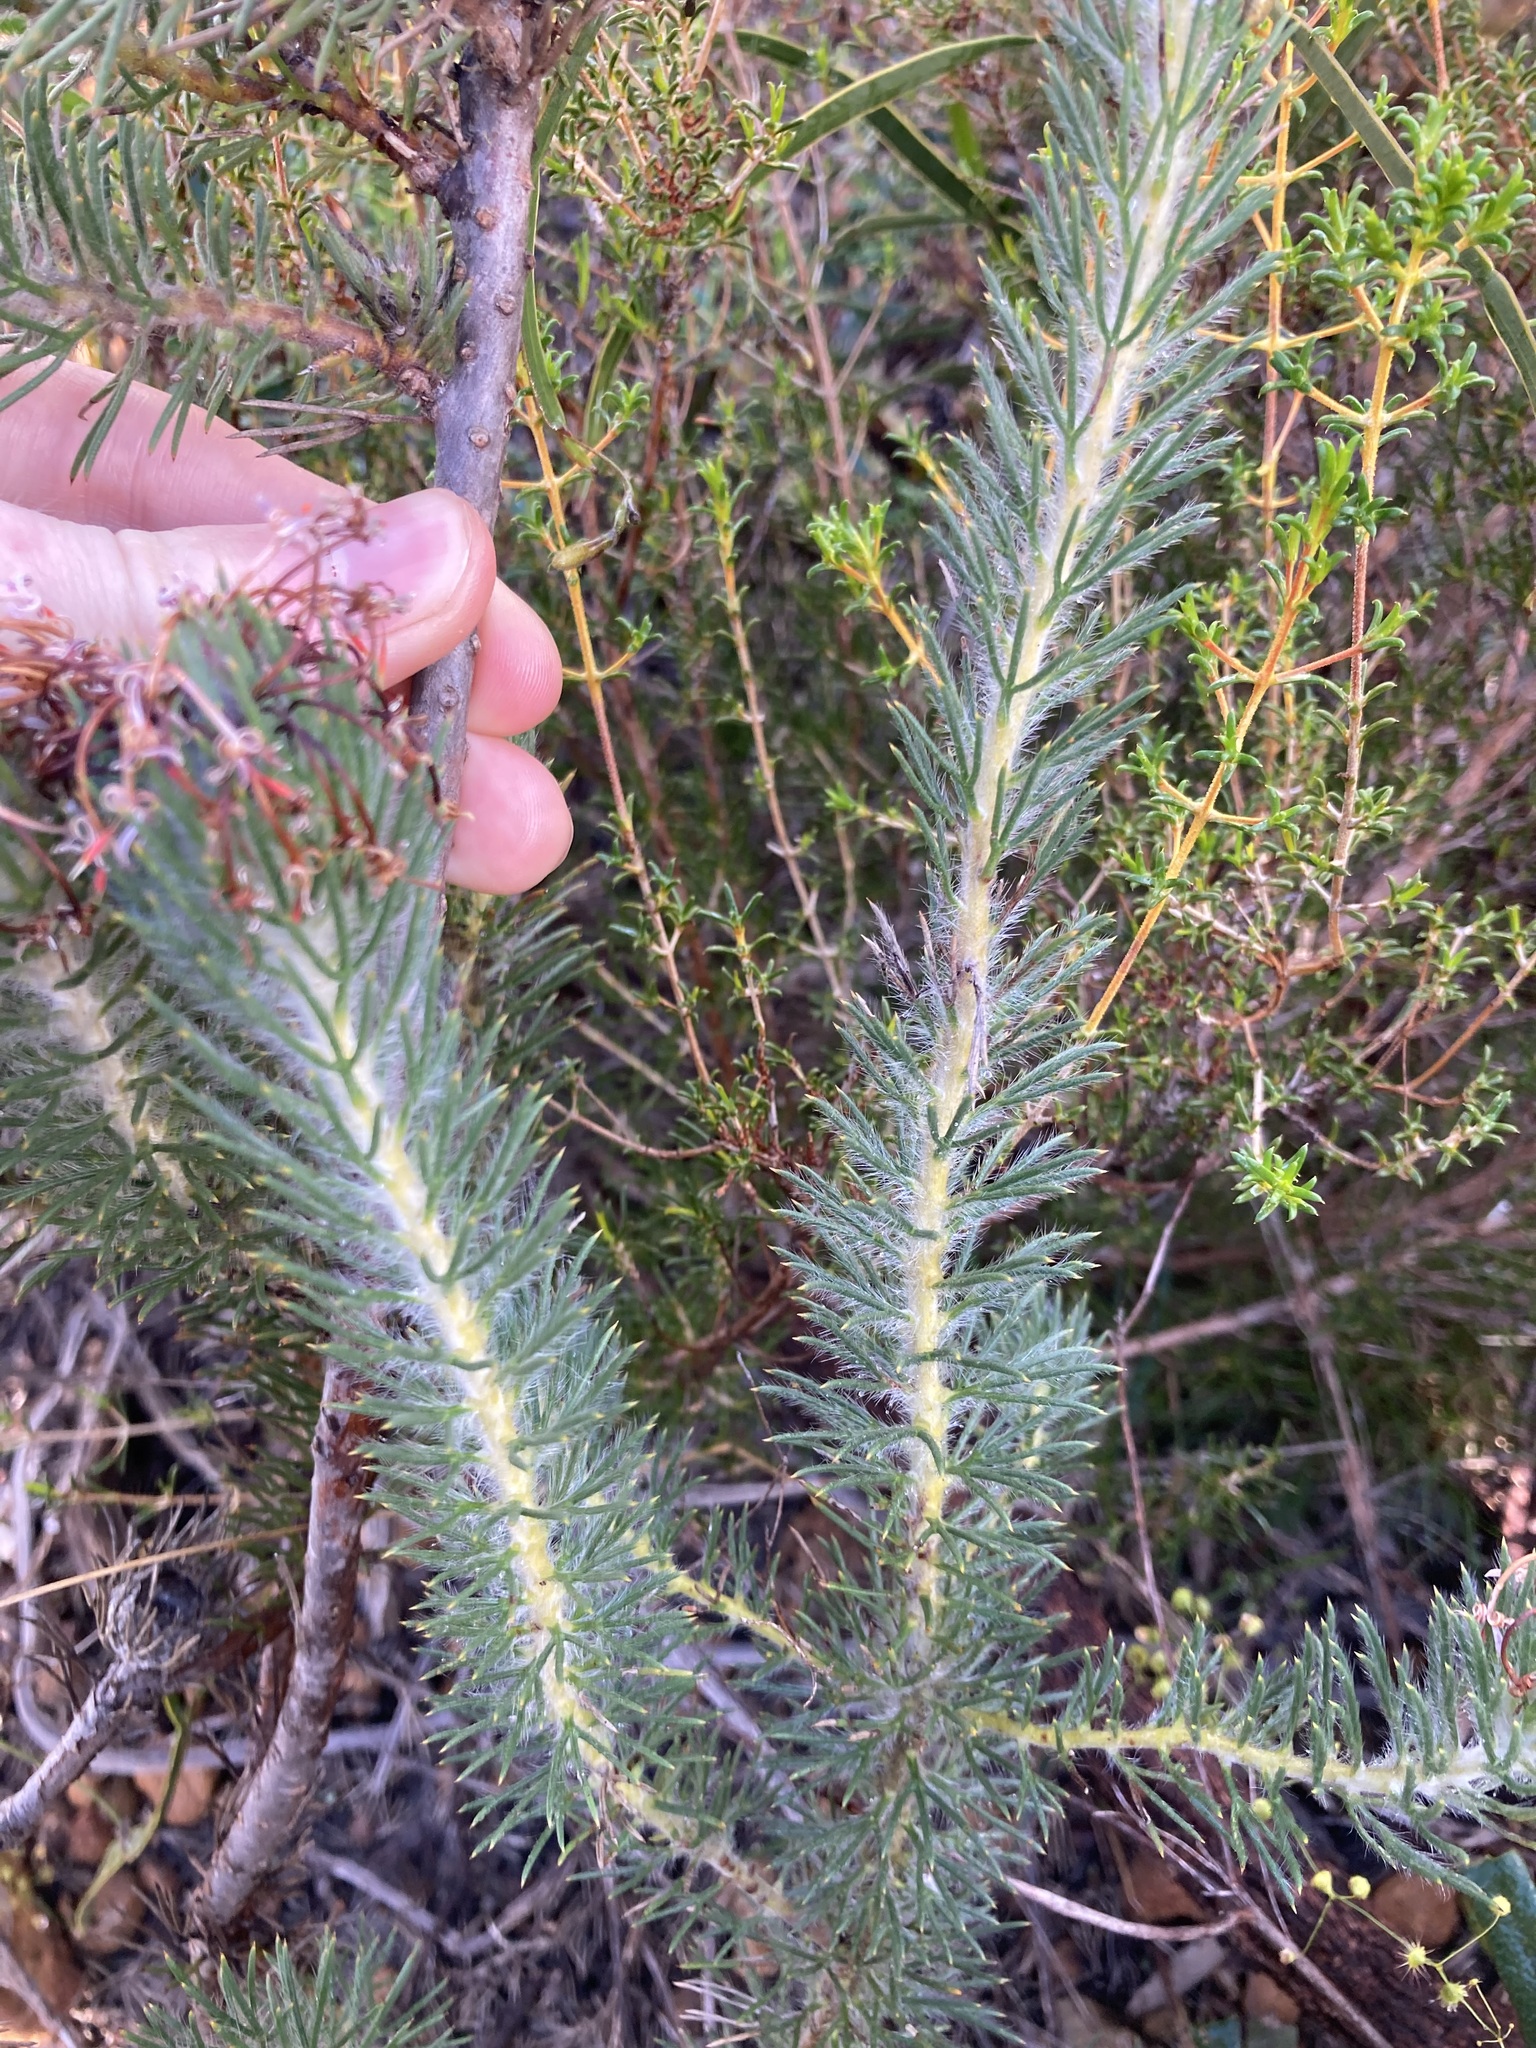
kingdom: Plantae
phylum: Tracheophyta
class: Magnoliopsida
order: Proteales
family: Proteaceae
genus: Isopogon
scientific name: Isopogon adenanthoides
